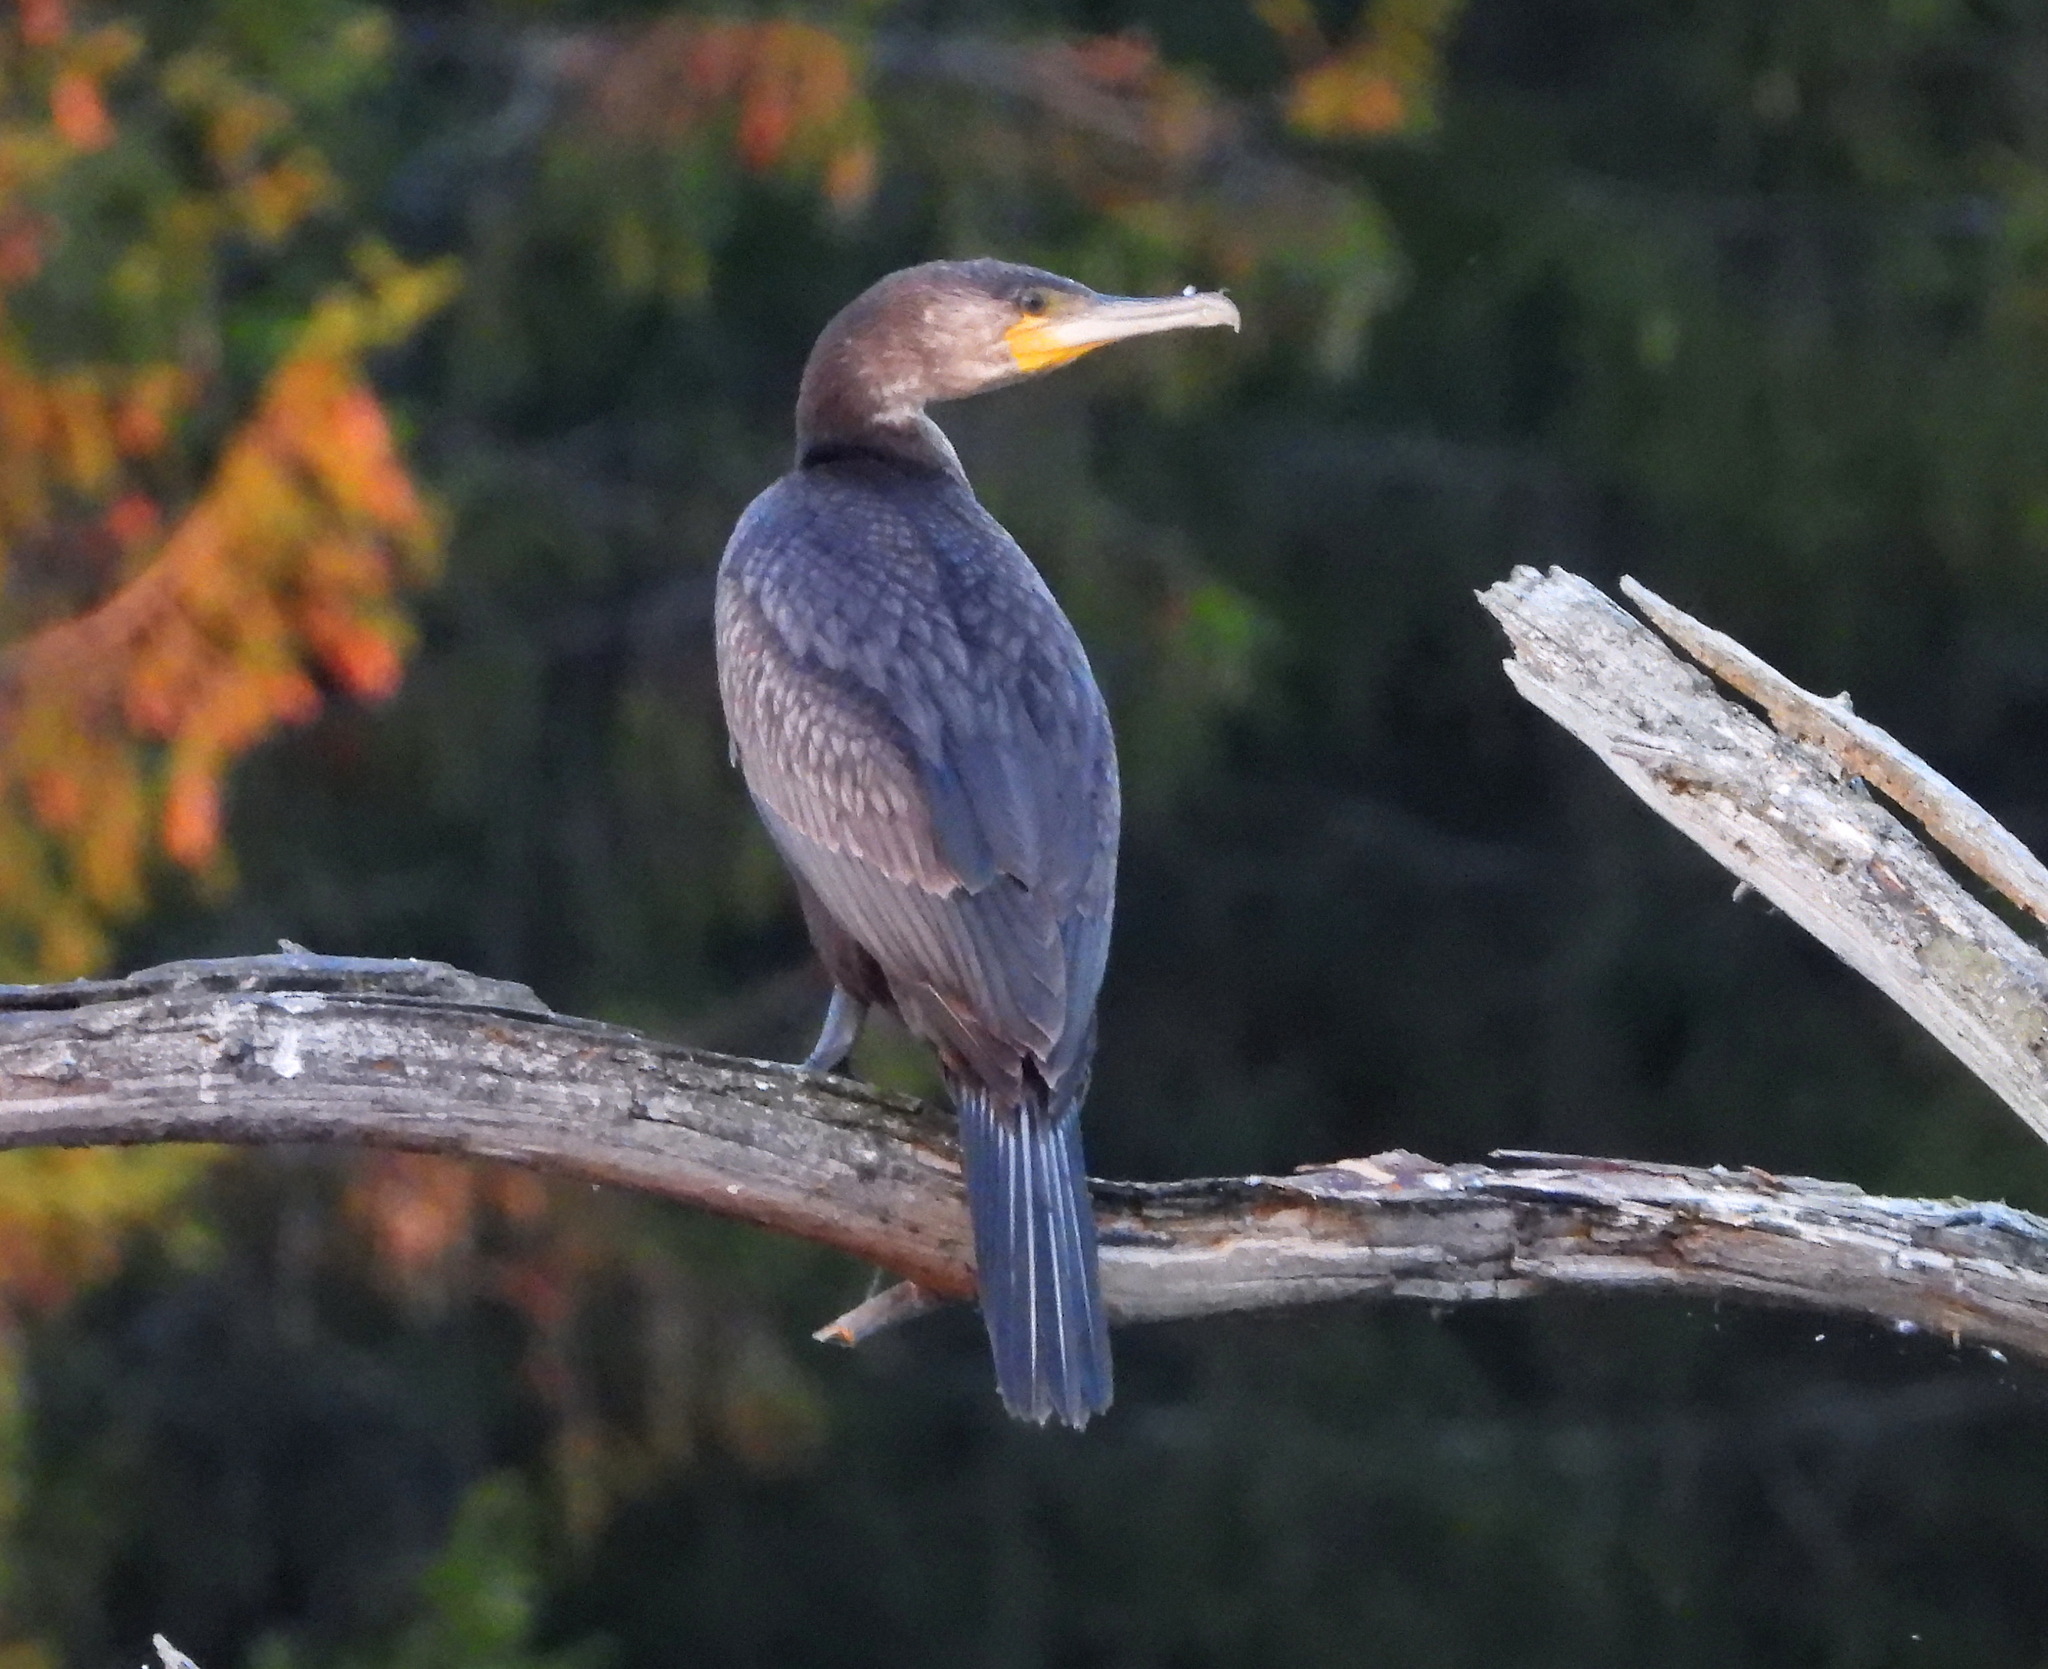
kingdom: Animalia
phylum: Chordata
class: Aves
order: Suliformes
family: Phalacrocoracidae
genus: Phalacrocorax
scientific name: Phalacrocorax carbo
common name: Great cormorant
